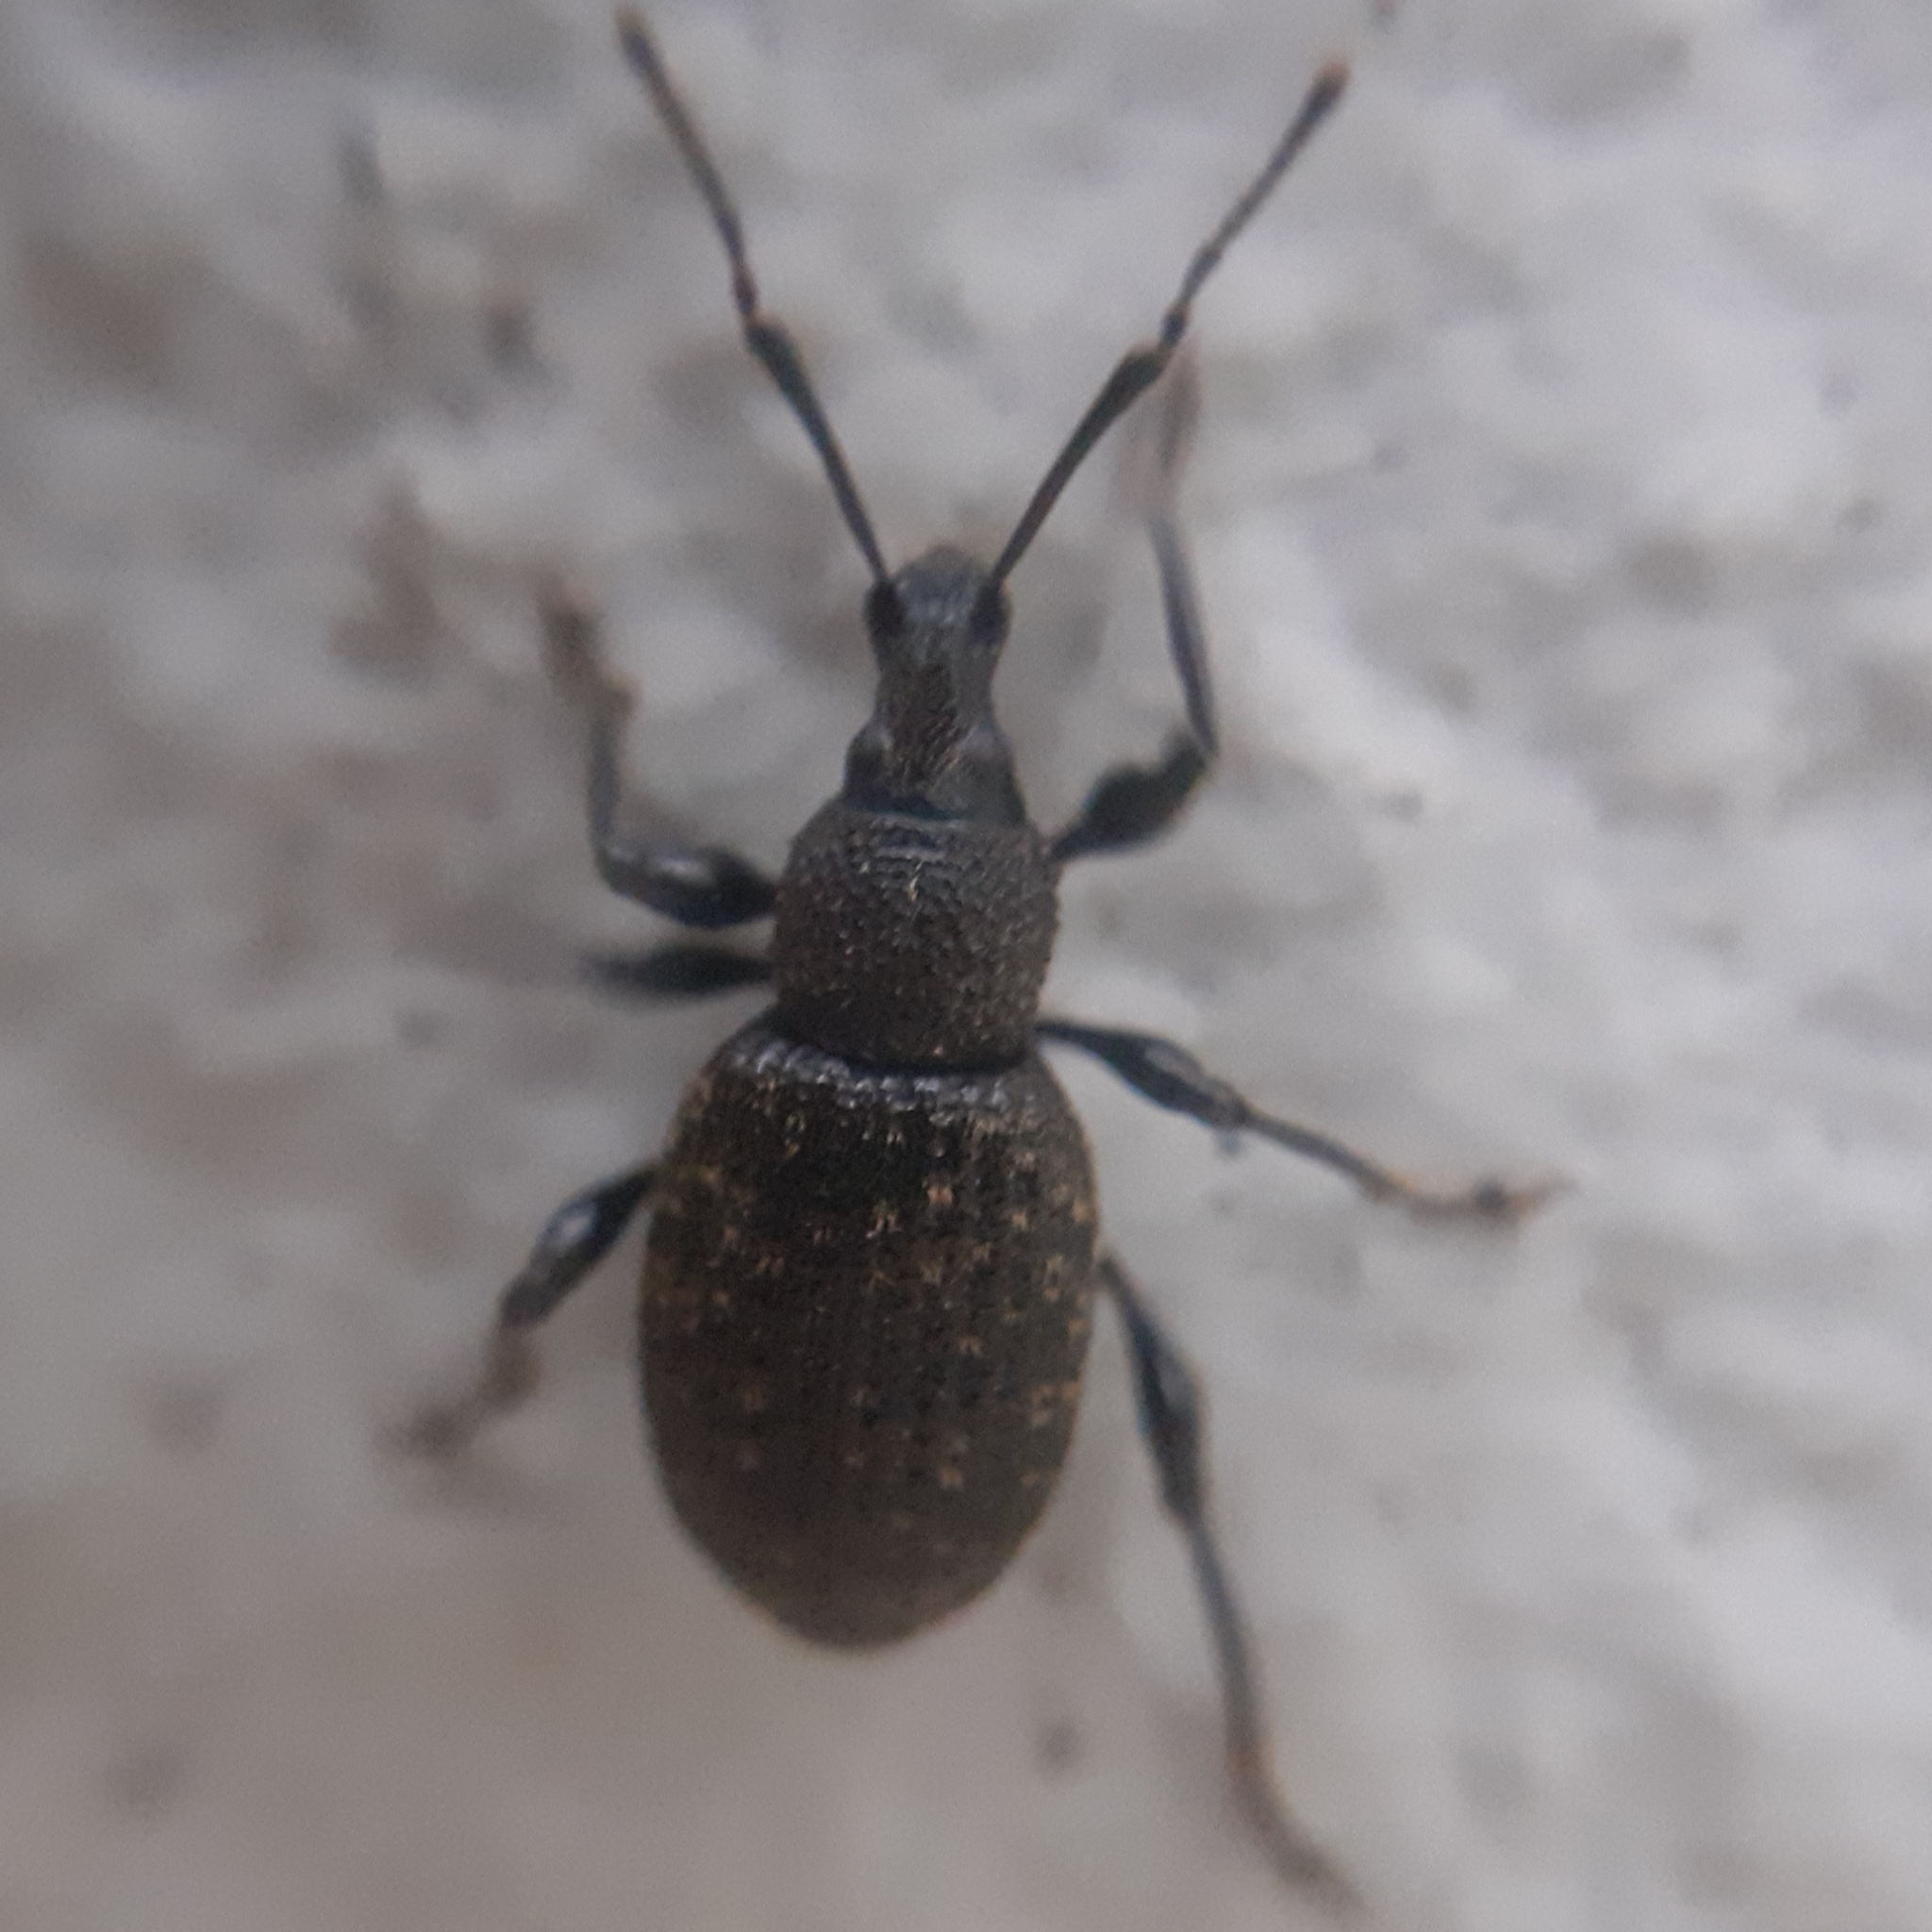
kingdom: Animalia
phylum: Arthropoda
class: Insecta
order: Coleoptera
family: Curculionidae
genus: Otiorhynchus
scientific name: Otiorhynchus sulcatus
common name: Black vine weevil
